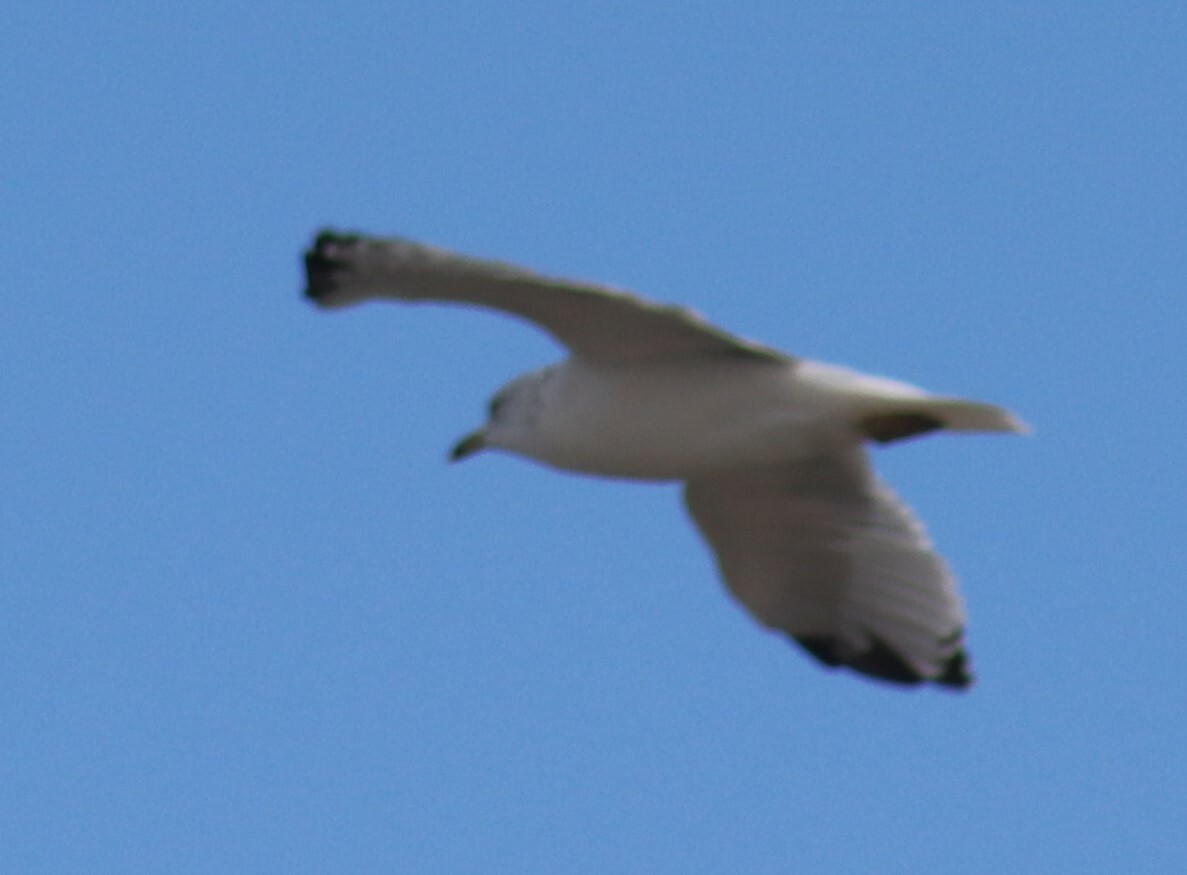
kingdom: Animalia
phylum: Chordata
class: Aves
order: Charadriiformes
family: Laridae
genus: Larus
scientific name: Larus delawarensis
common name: Ring-billed gull
